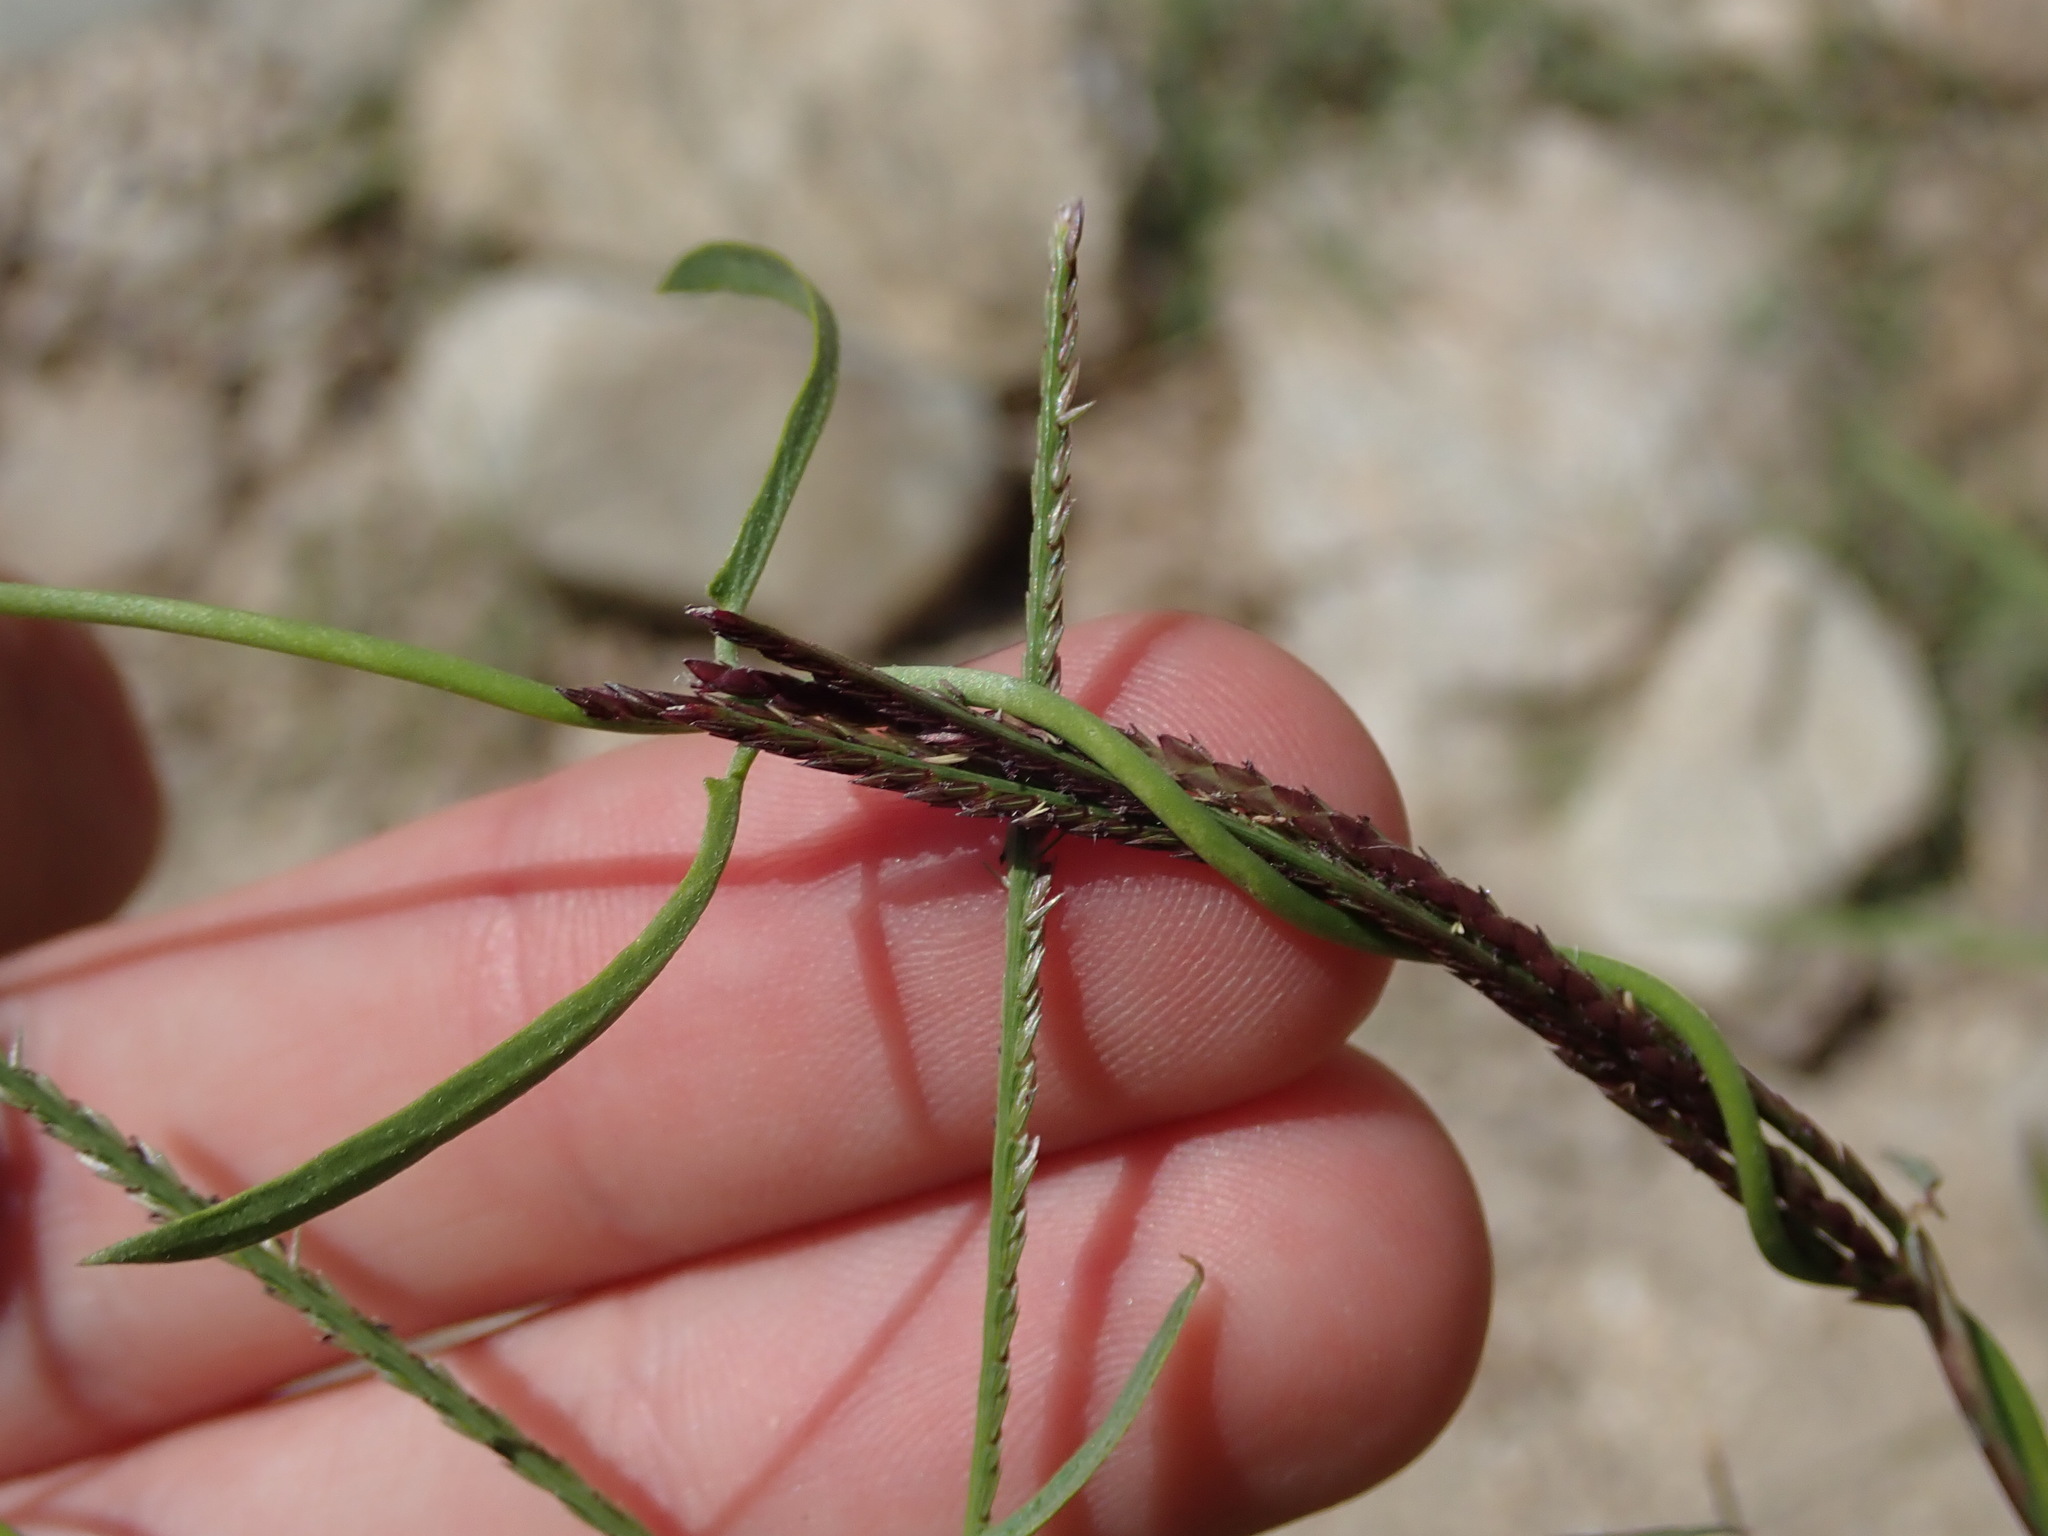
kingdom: Plantae
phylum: Tracheophyta
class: Magnoliopsida
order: Gentianales
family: Apocynaceae
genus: Funastrum
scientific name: Funastrum heterophyllum
